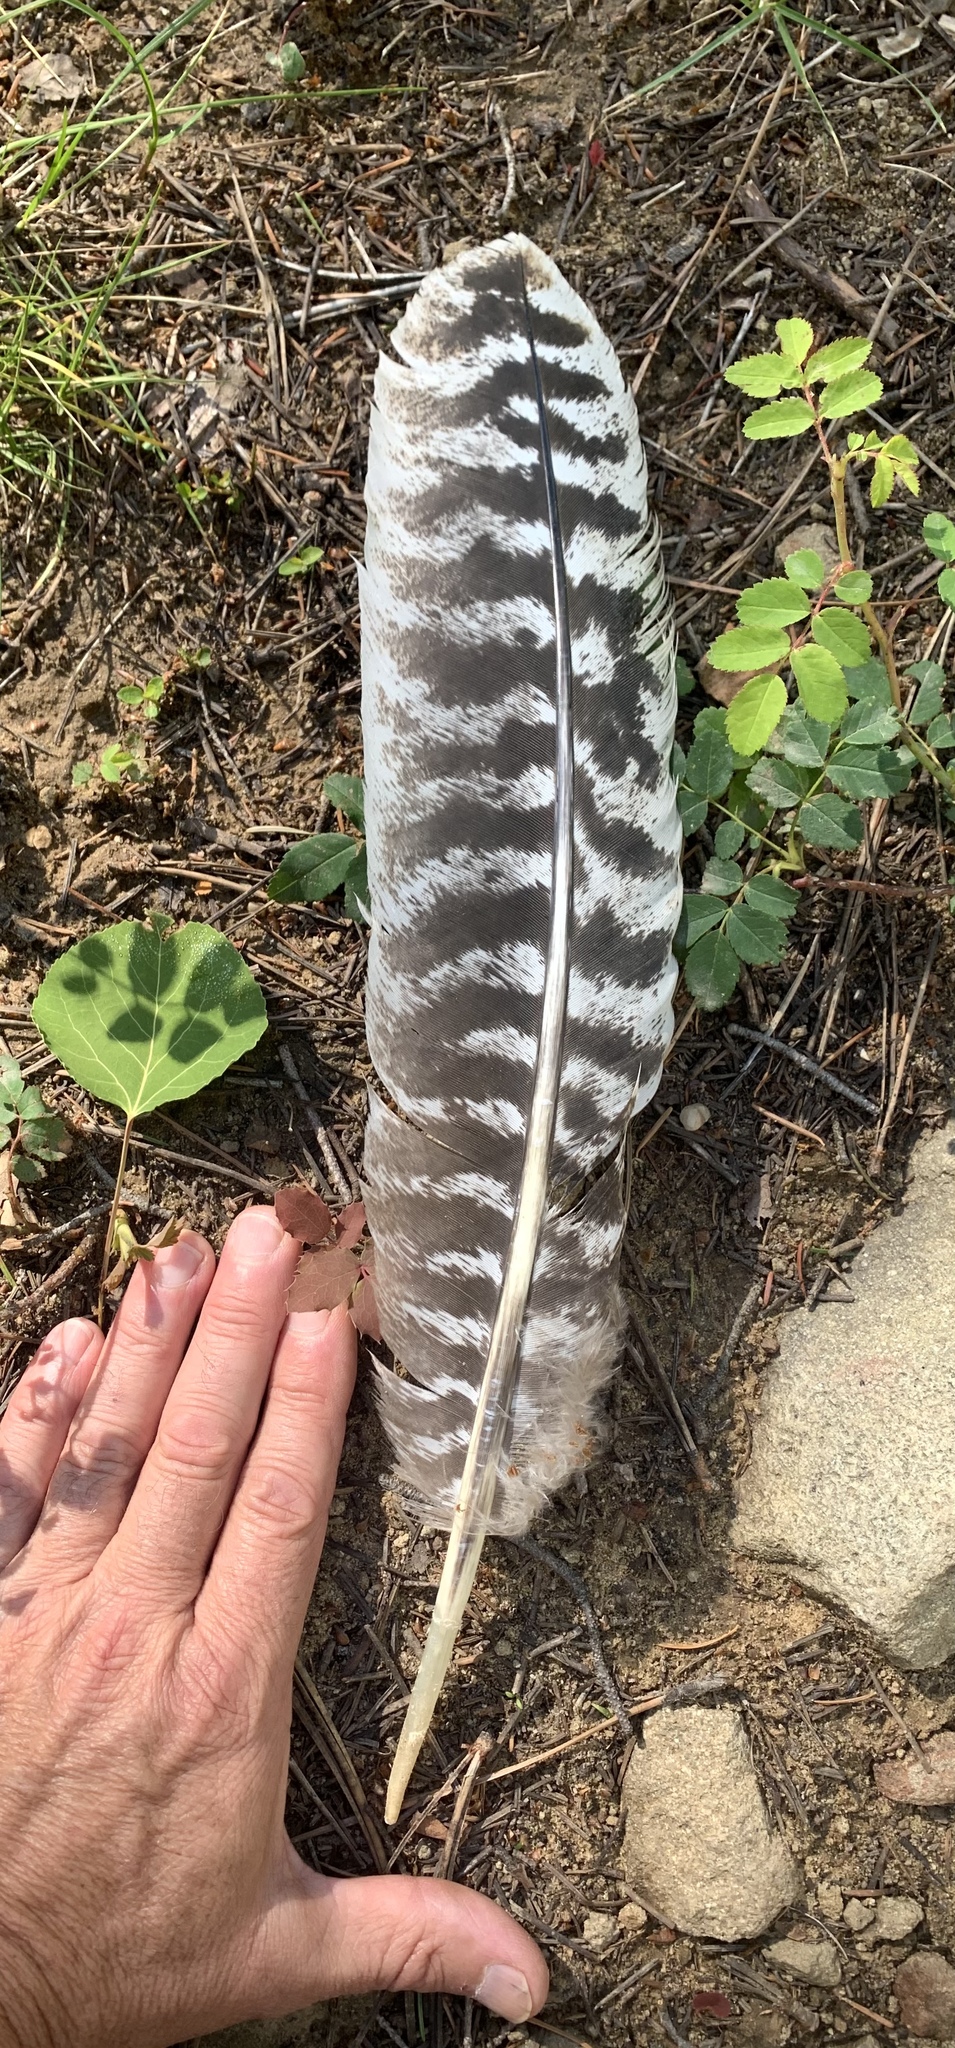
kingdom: Animalia
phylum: Chordata
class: Aves
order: Galliformes
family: Phasianidae
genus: Meleagris
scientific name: Meleagris gallopavo
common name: Wild turkey
